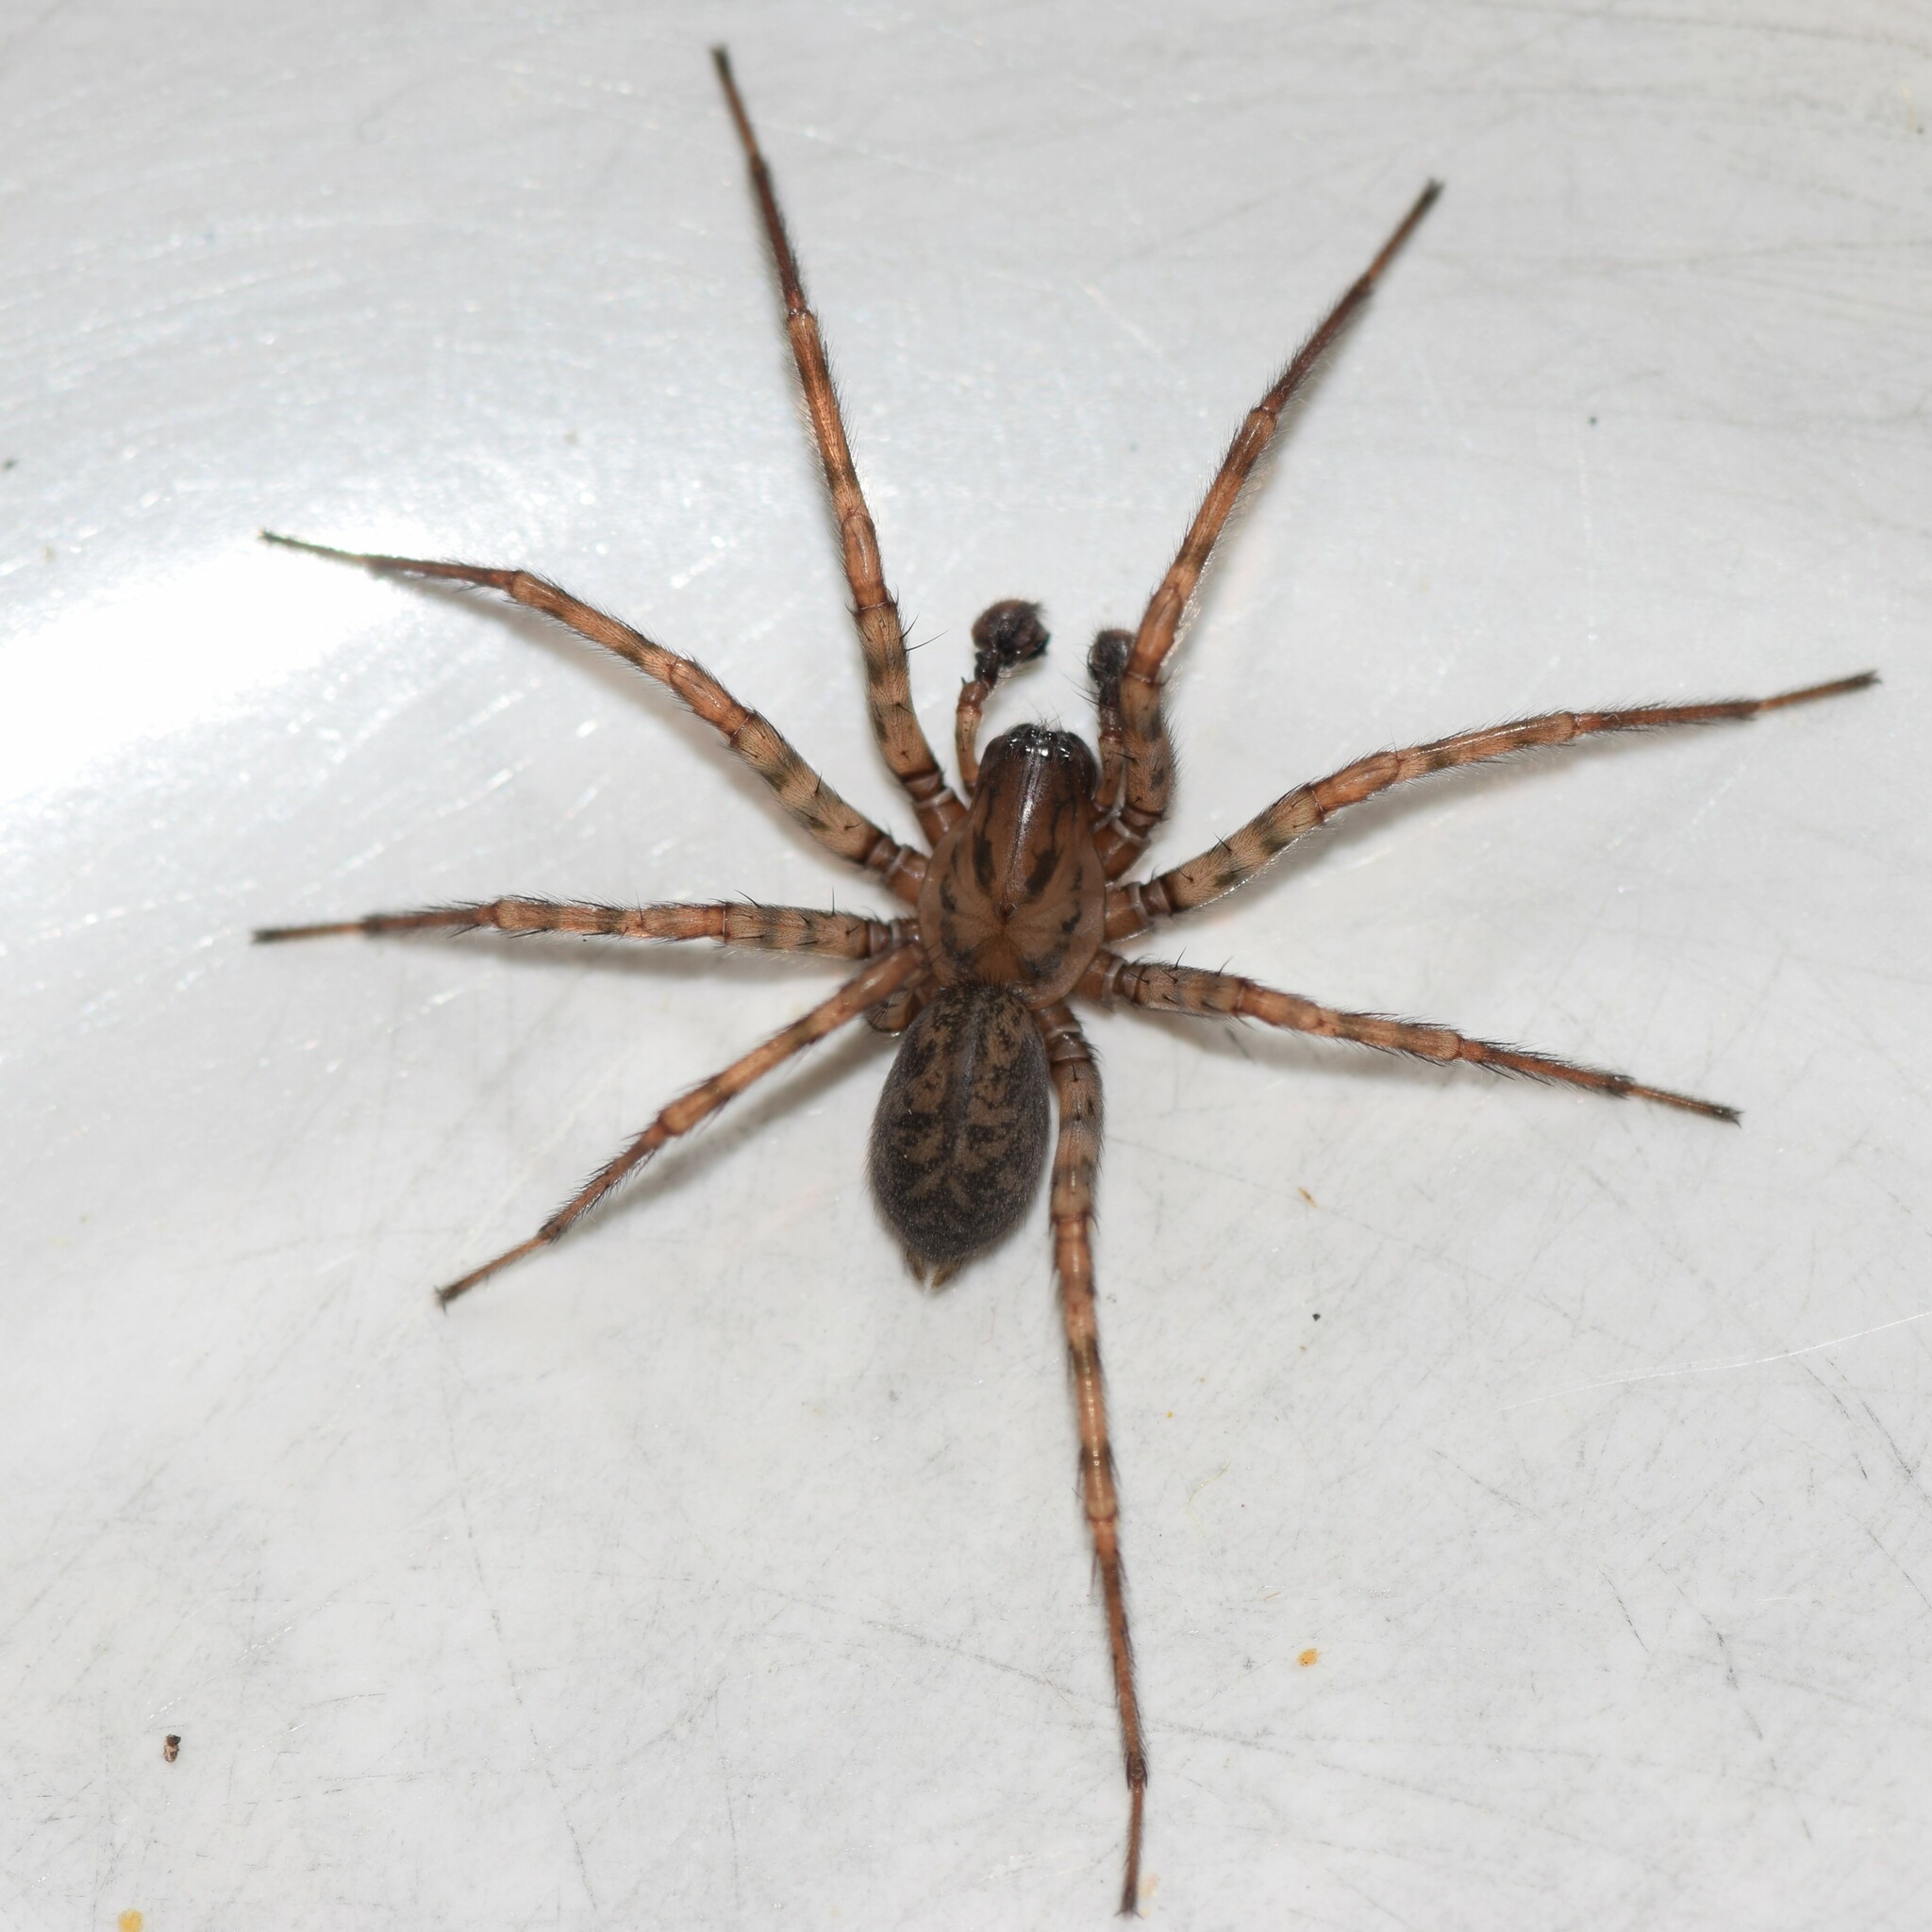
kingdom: Animalia
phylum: Arthropoda
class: Arachnida
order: Araneae
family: Agelenidae
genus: Coras
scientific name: Coras
